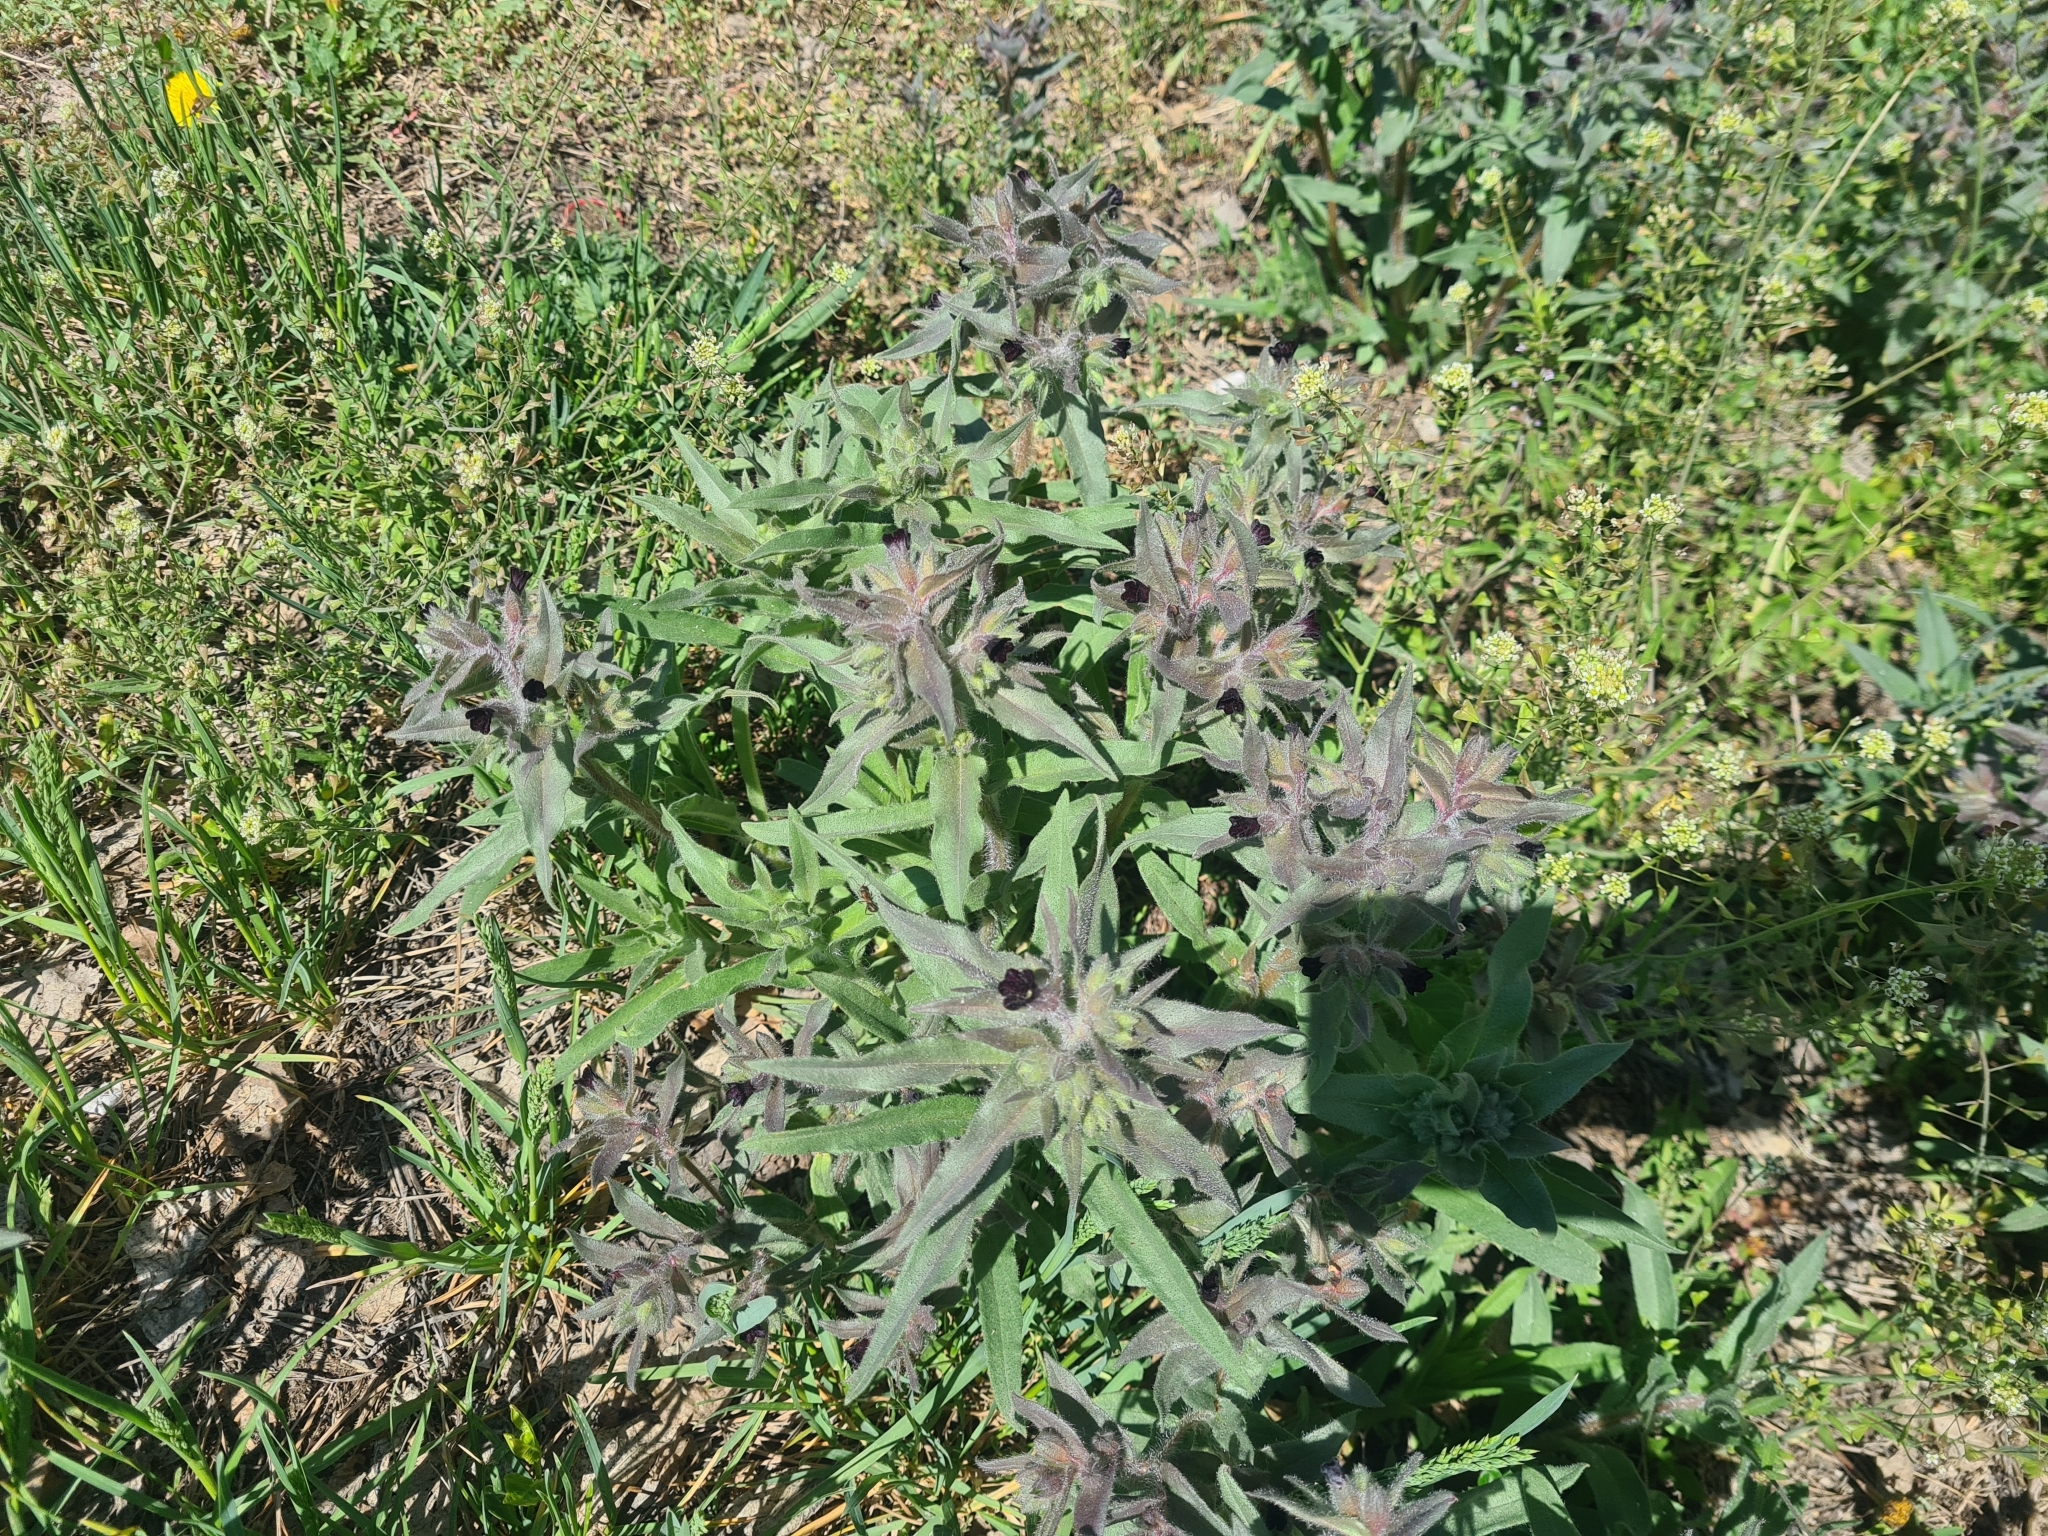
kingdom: Plantae
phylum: Tracheophyta
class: Magnoliopsida
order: Boraginales
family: Boraginaceae
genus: Nonea
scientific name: Nonea pulla
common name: Brown nonea
